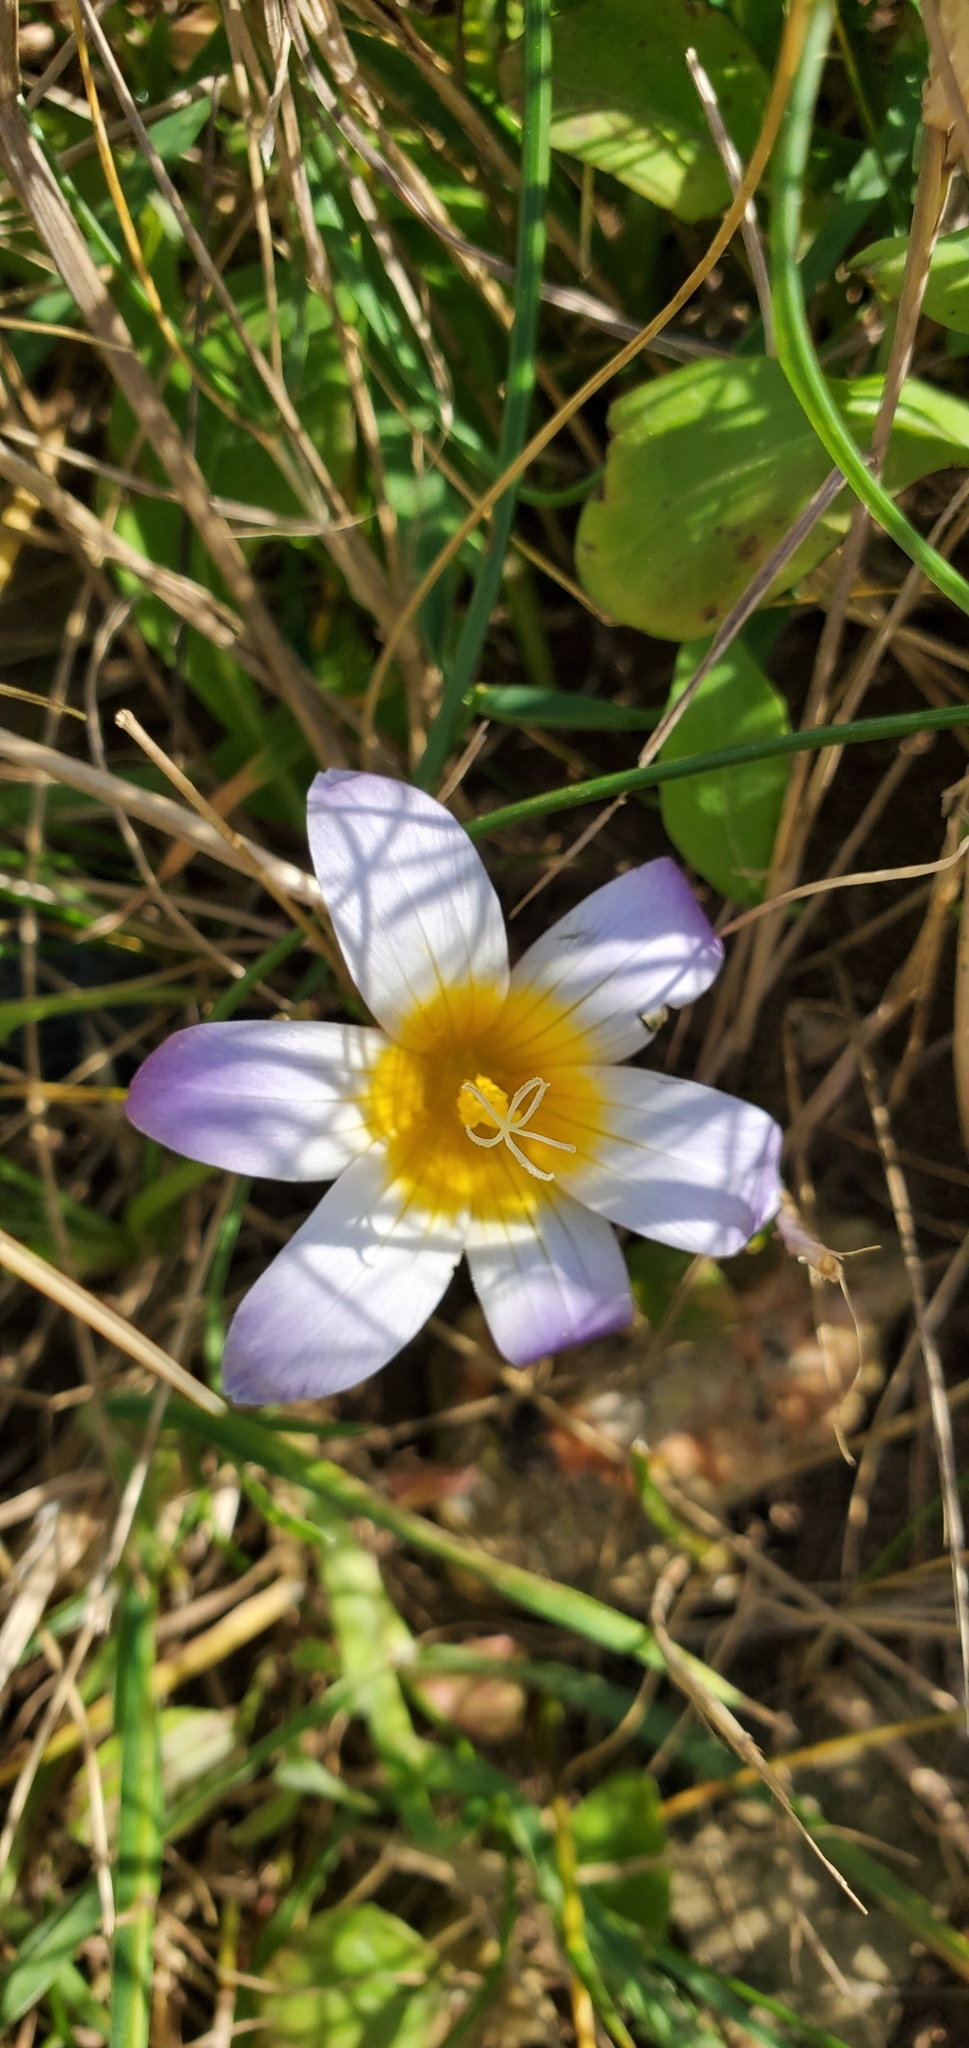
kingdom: Plantae
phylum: Tracheophyta
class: Liliopsida
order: Asparagales
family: Iridaceae
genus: Romulea
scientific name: Romulea bulbocodium
